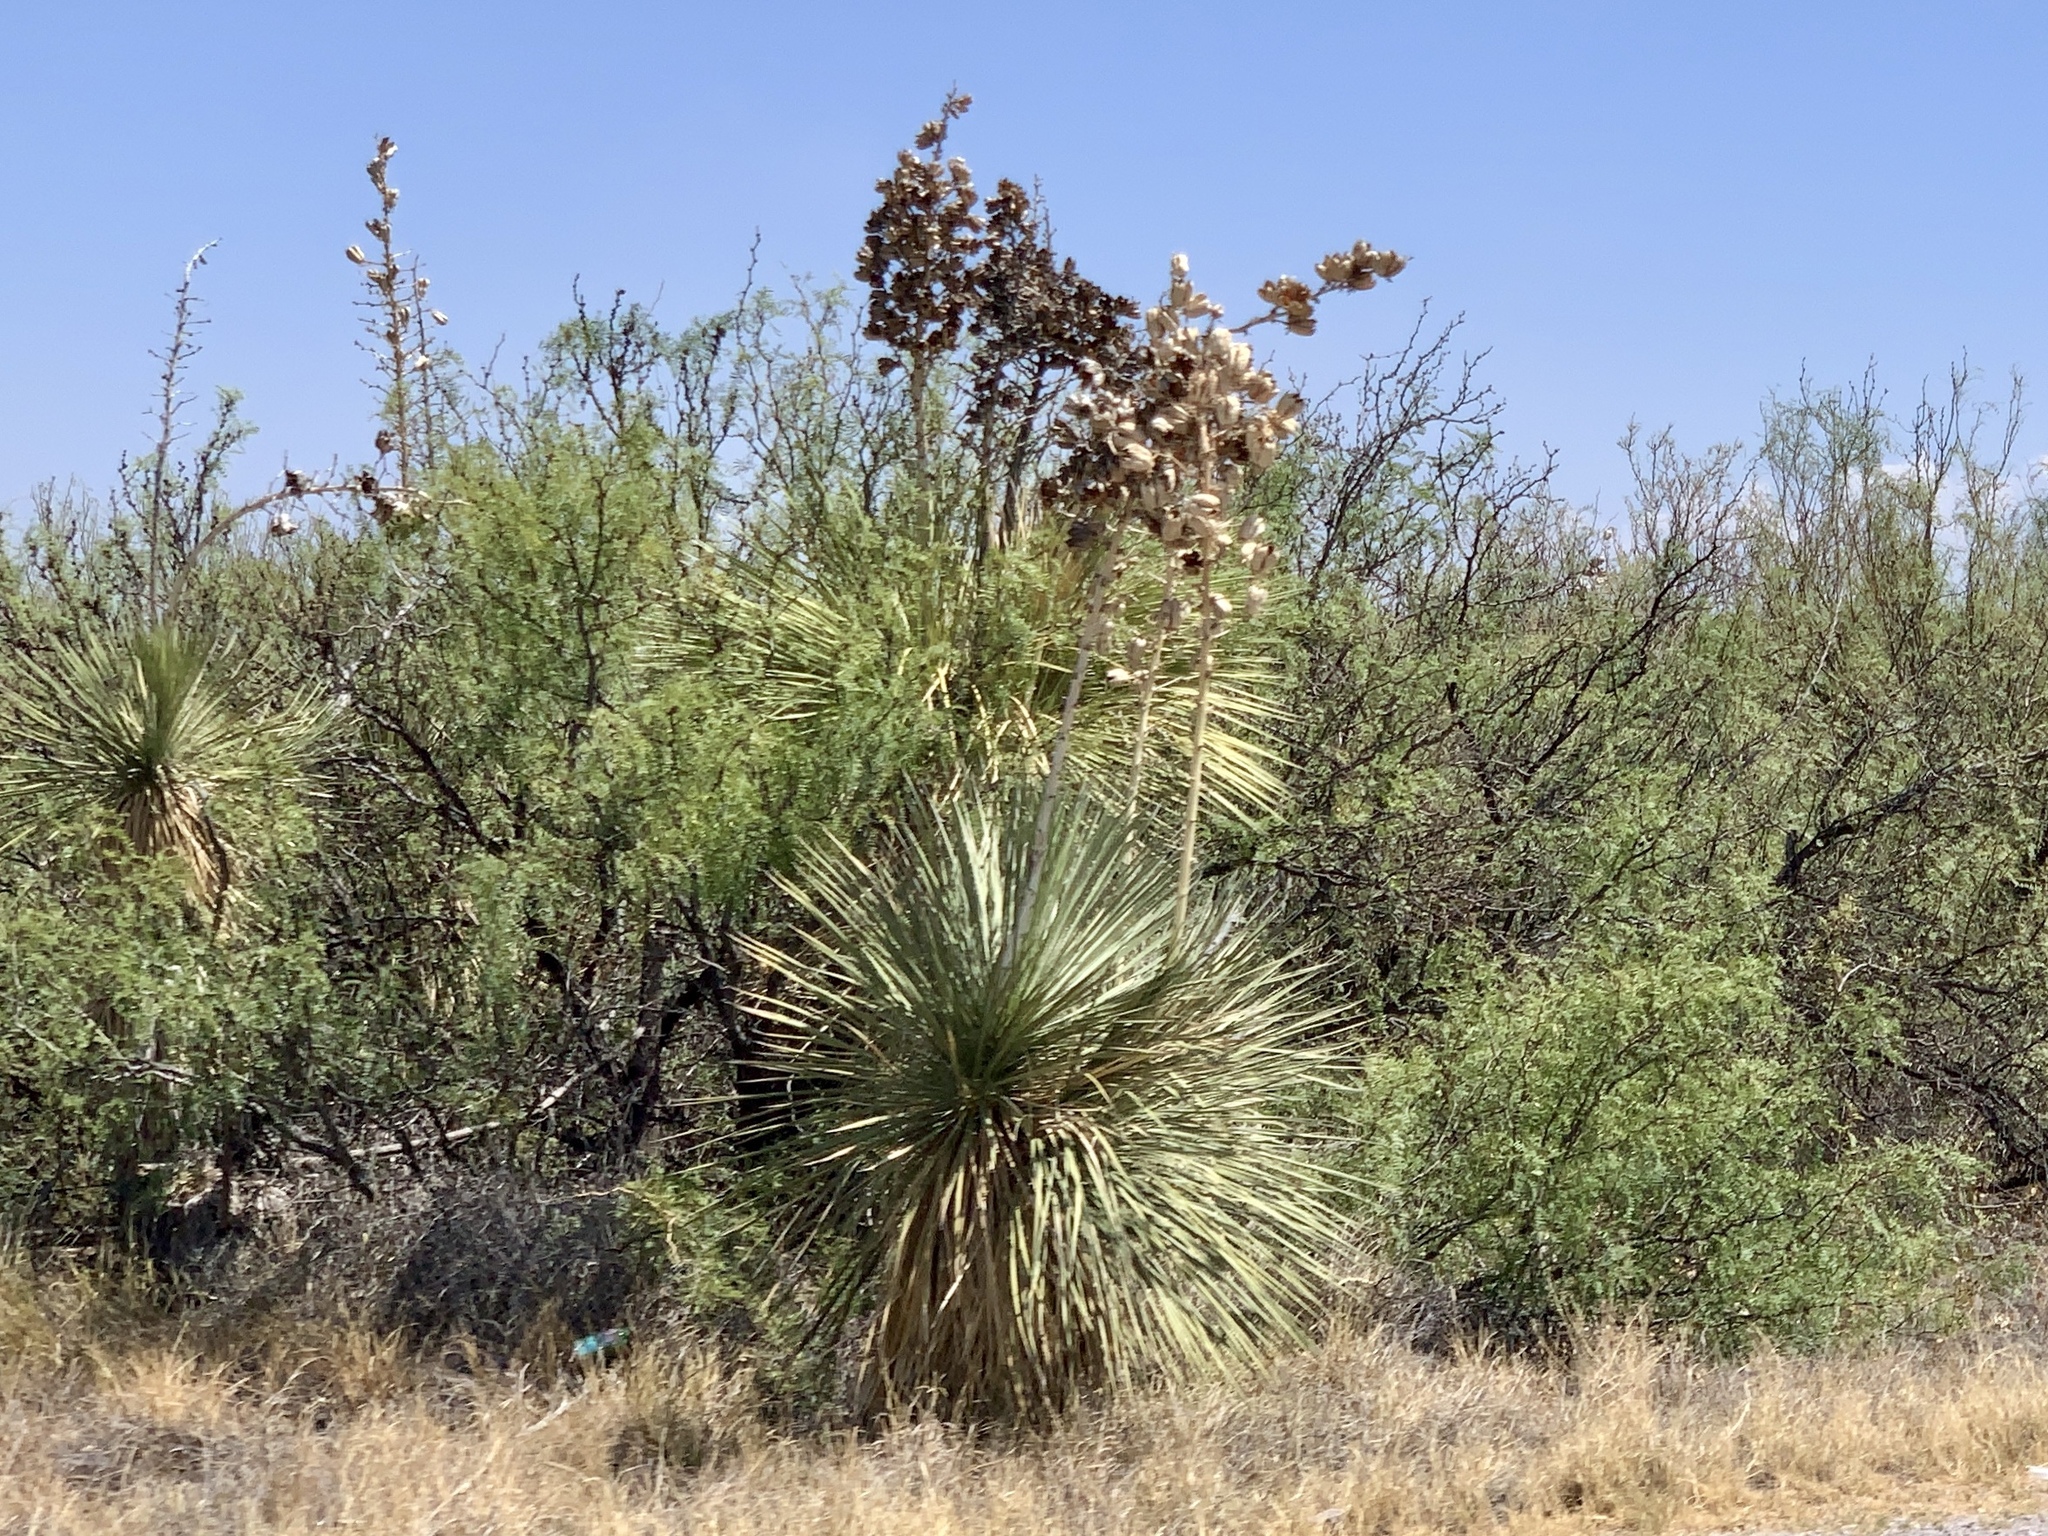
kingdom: Plantae
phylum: Tracheophyta
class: Liliopsida
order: Asparagales
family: Asparagaceae
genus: Yucca
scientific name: Yucca elata
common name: Palmella
